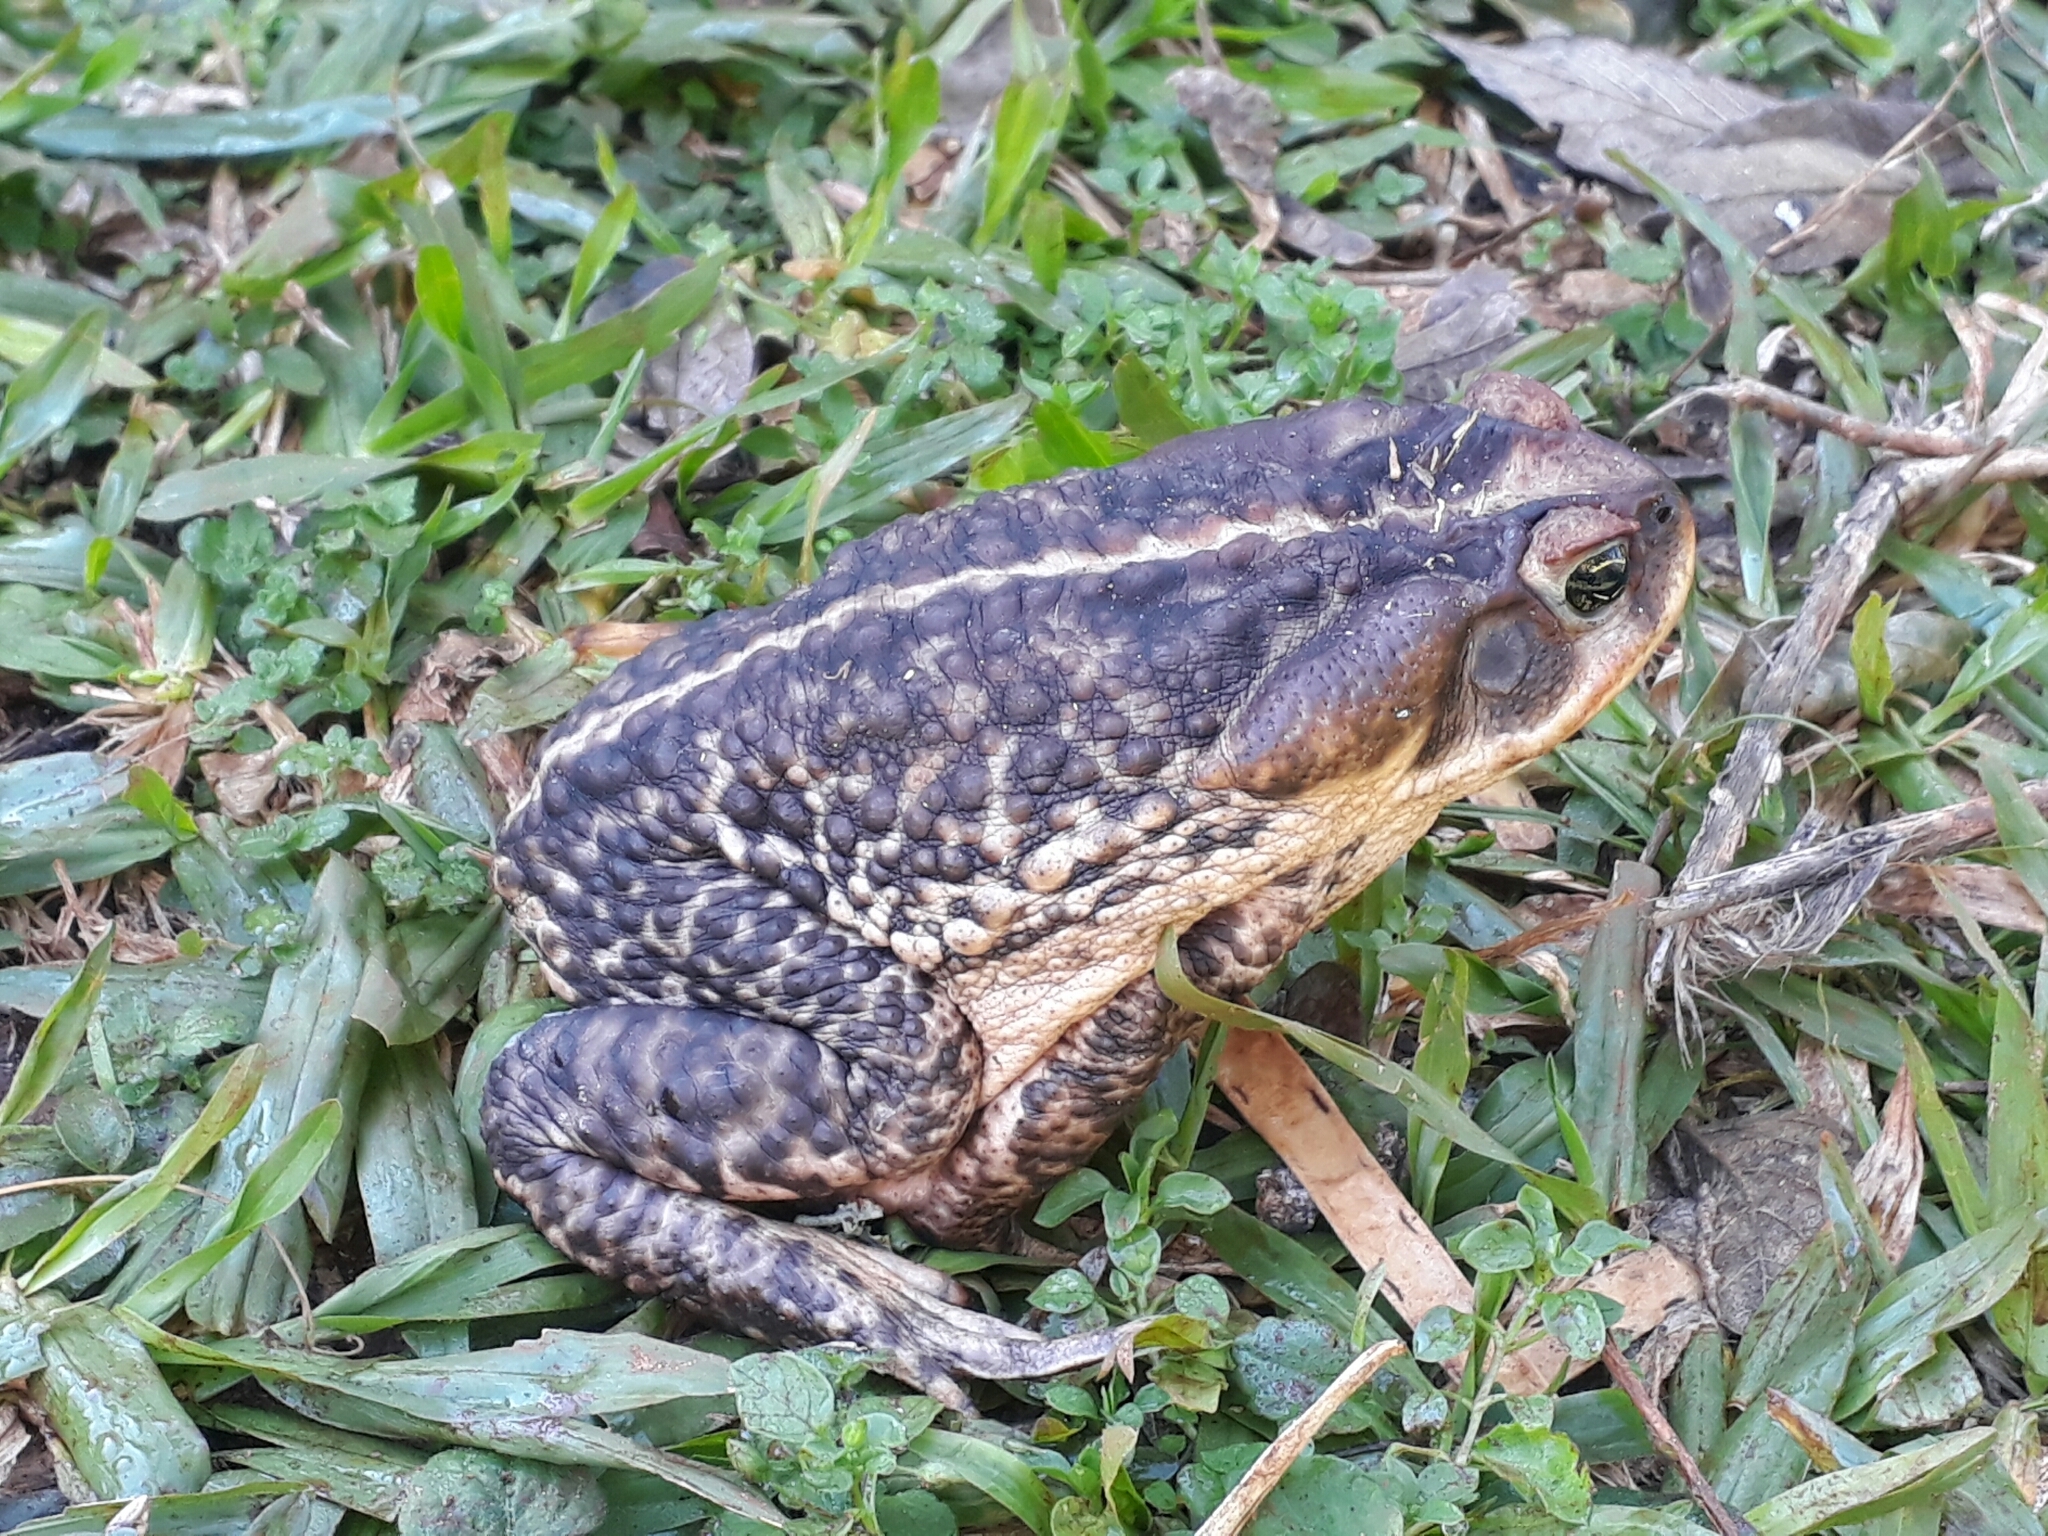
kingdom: Animalia
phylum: Chordata
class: Amphibia
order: Anura
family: Bufonidae
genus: Rhinella
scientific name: Rhinella diptycha
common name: Cope's toad
